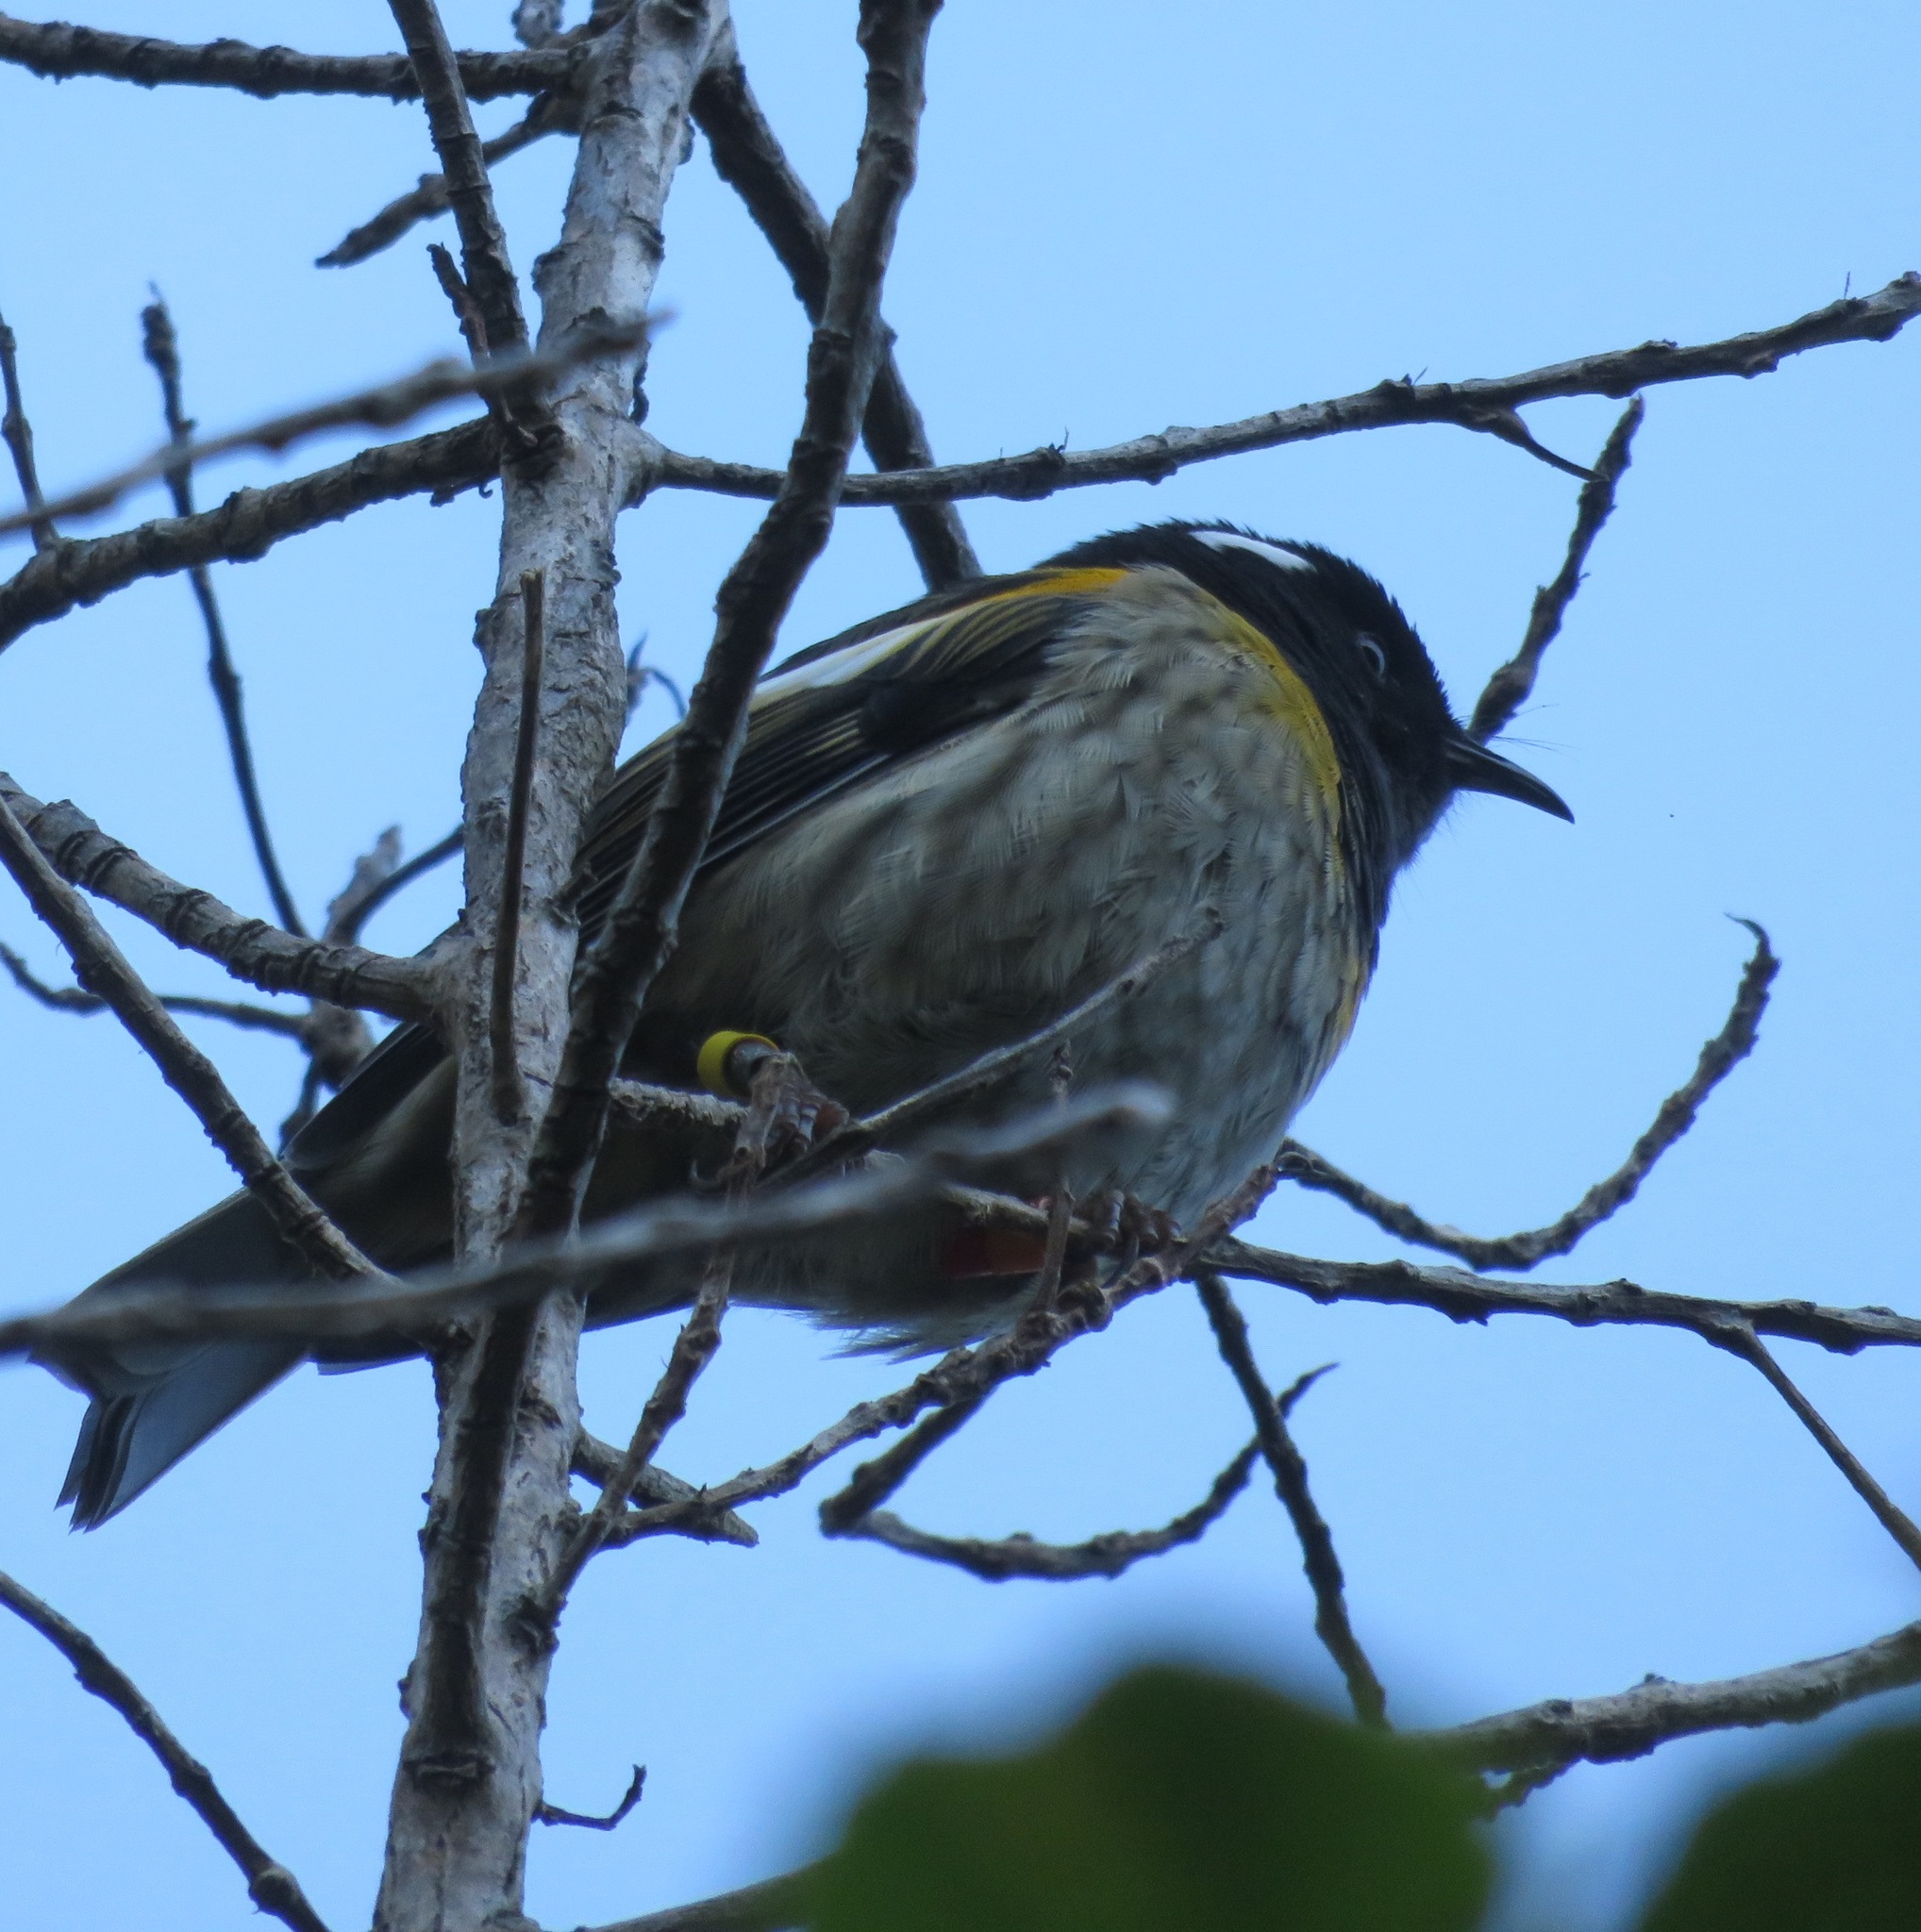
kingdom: Animalia
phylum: Chordata
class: Aves
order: Passeriformes
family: Notiomystidae
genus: Notiomystis
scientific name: Notiomystis cincta
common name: Stitchbird
